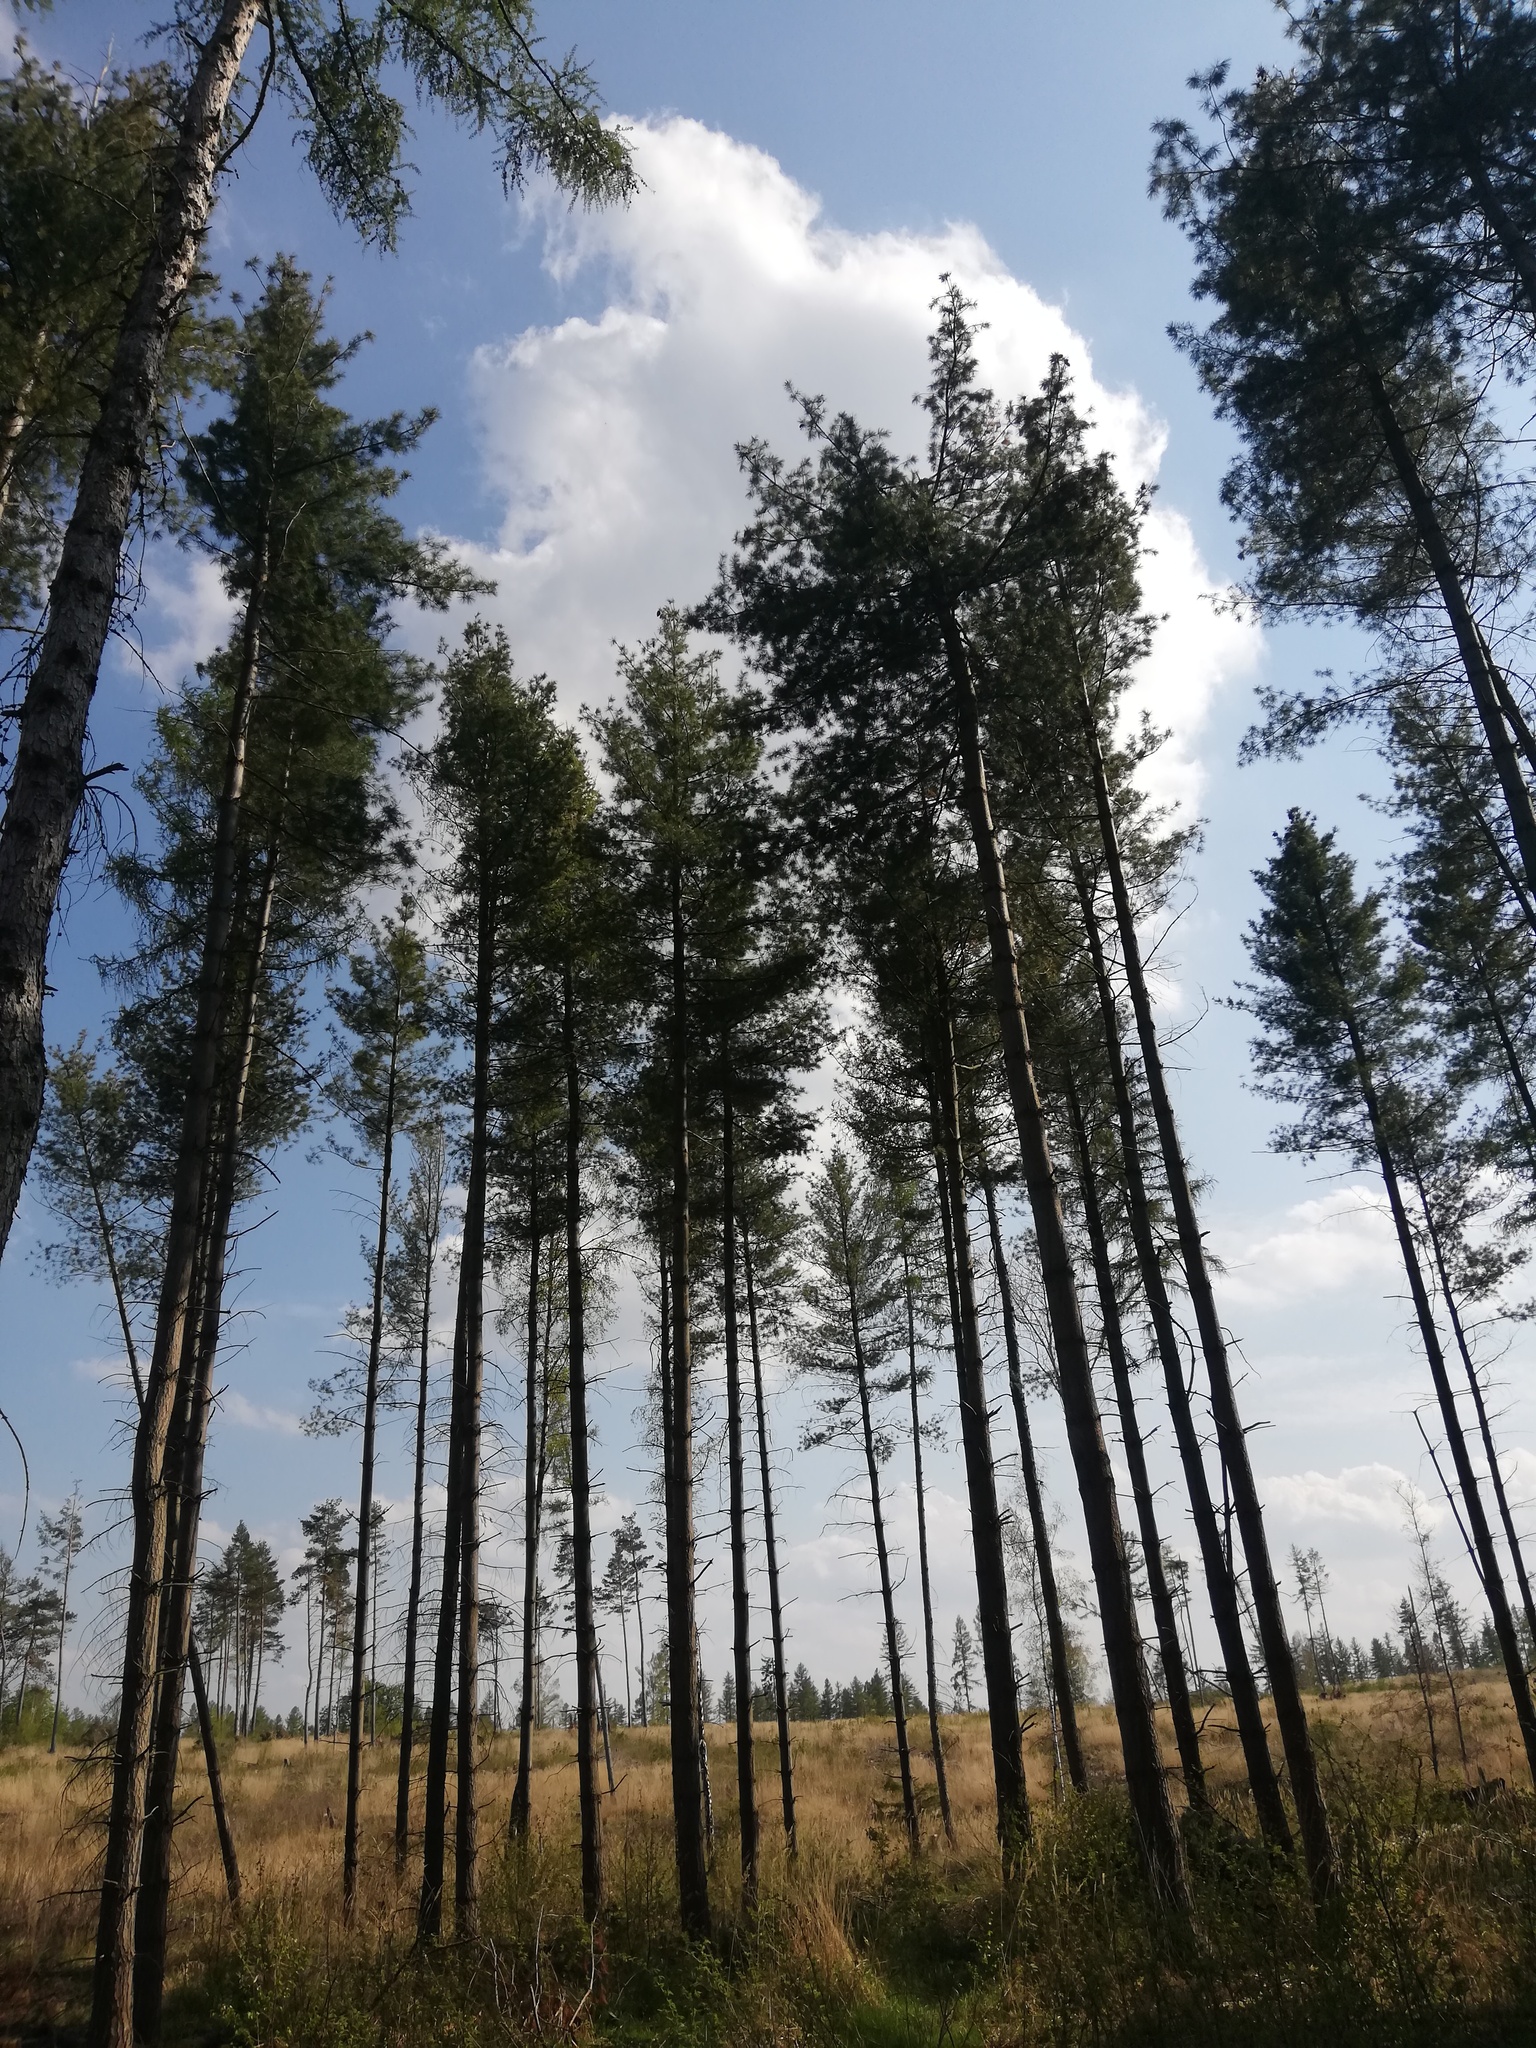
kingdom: Plantae
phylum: Tracheophyta
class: Pinopsida
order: Pinales
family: Pinaceae
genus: Pinus
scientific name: Pinus strobus
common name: Weymouth pine
